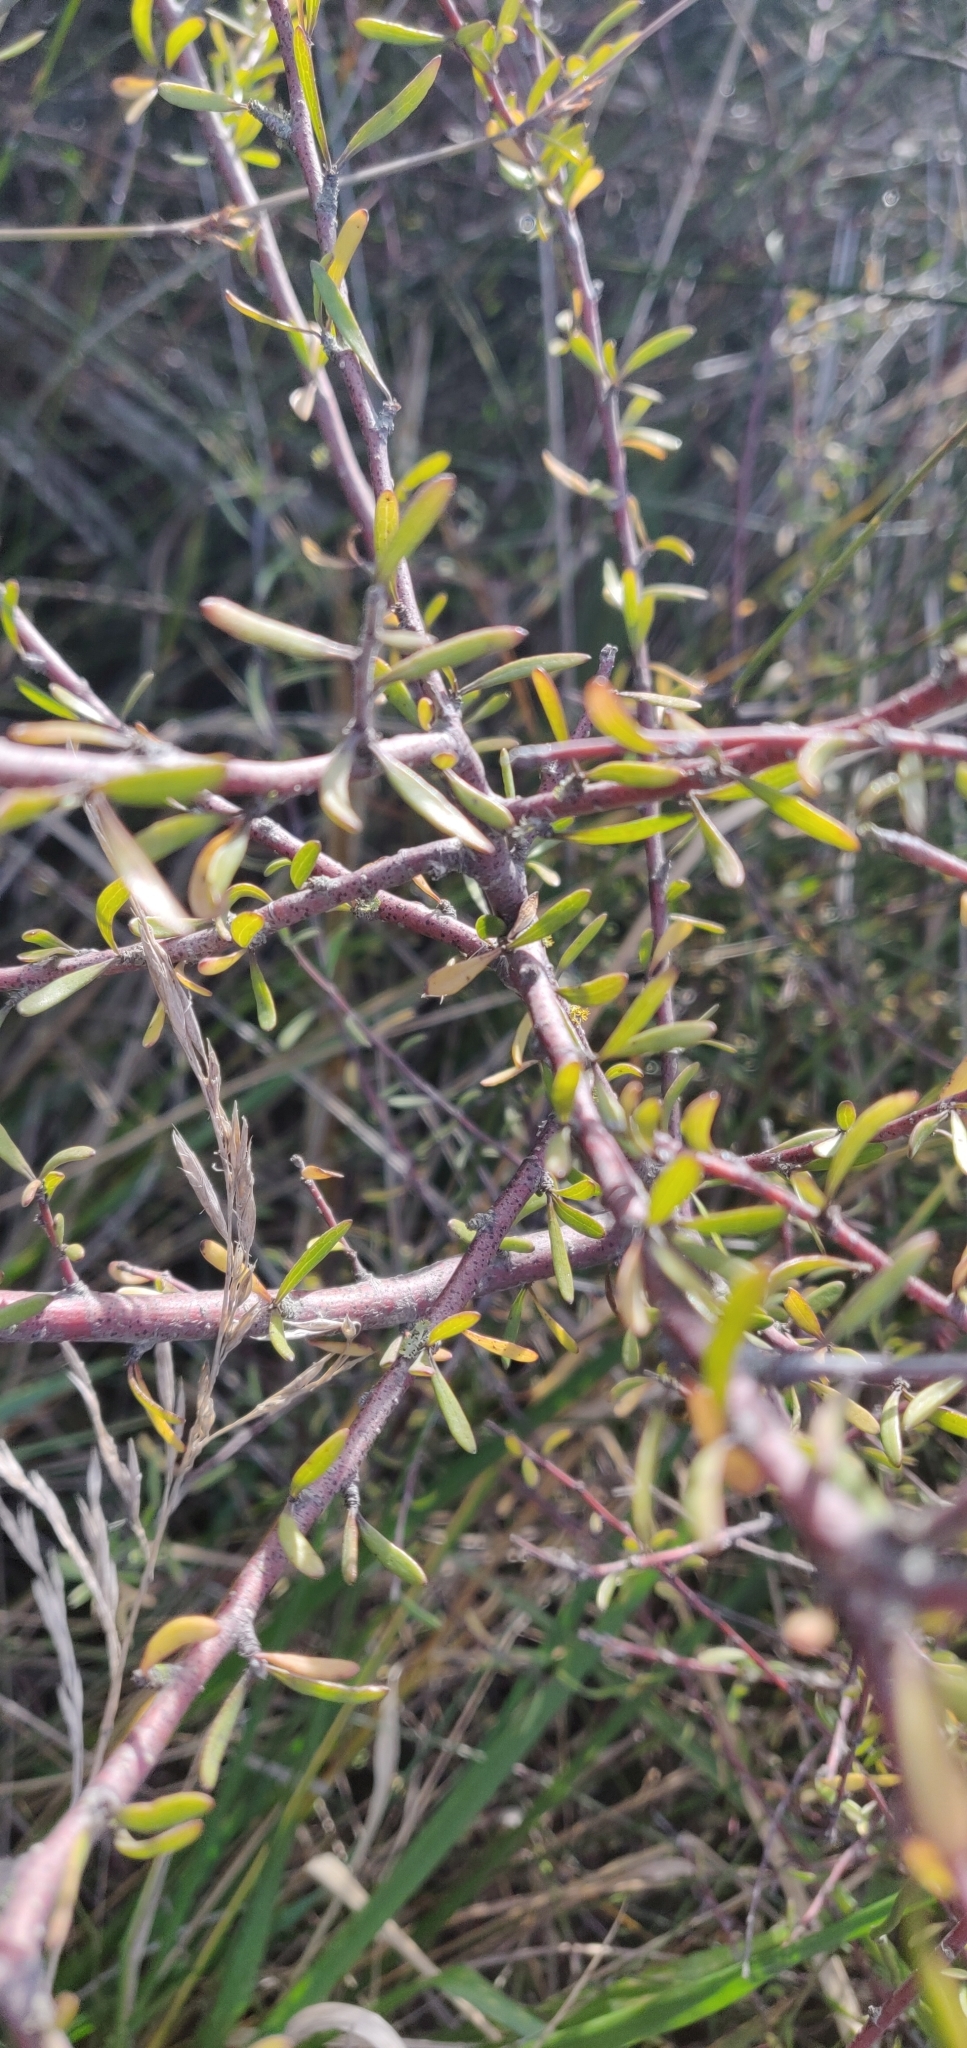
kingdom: Plantae
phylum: Tracheophyta
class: Magnoliopsida
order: Malvales
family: Malvaceae
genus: Plagianthus
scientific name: Plagianthus divaricatus
